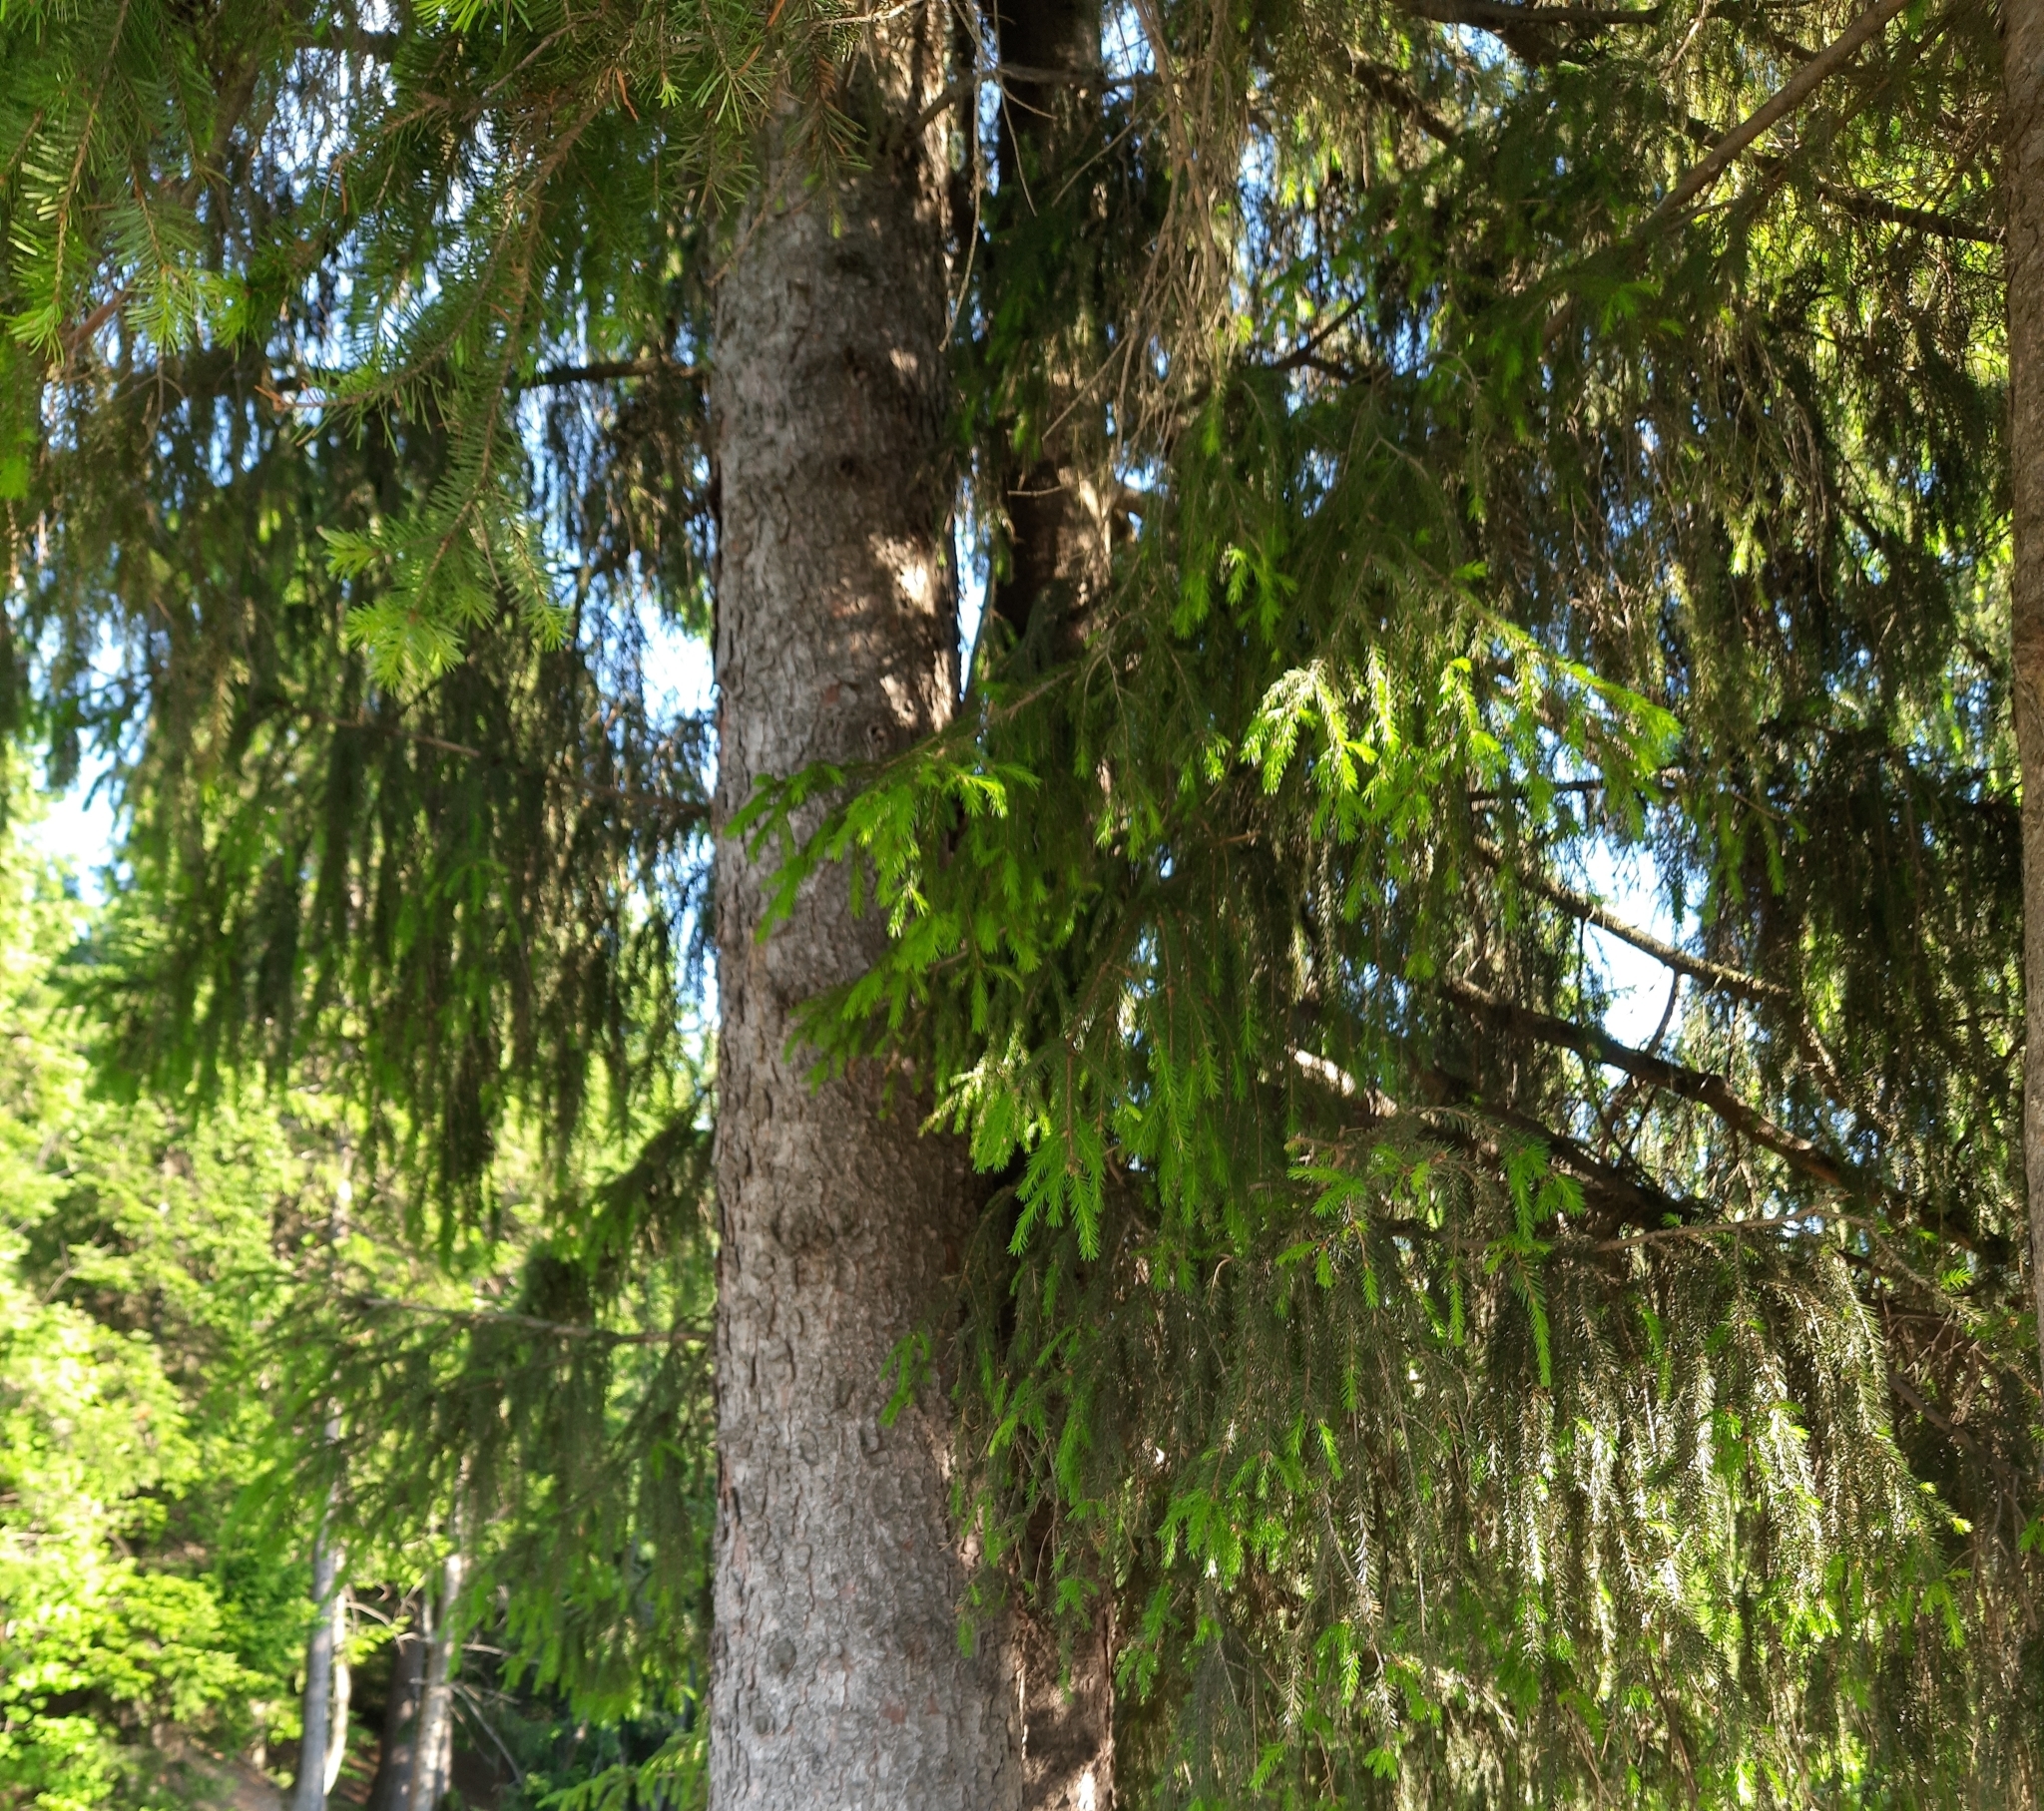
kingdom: Plantae
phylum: Tracheophyta
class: Pinopsida
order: Pinales
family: Pinaceae
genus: Picea
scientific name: Picea obovata
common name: Siberian spruce
